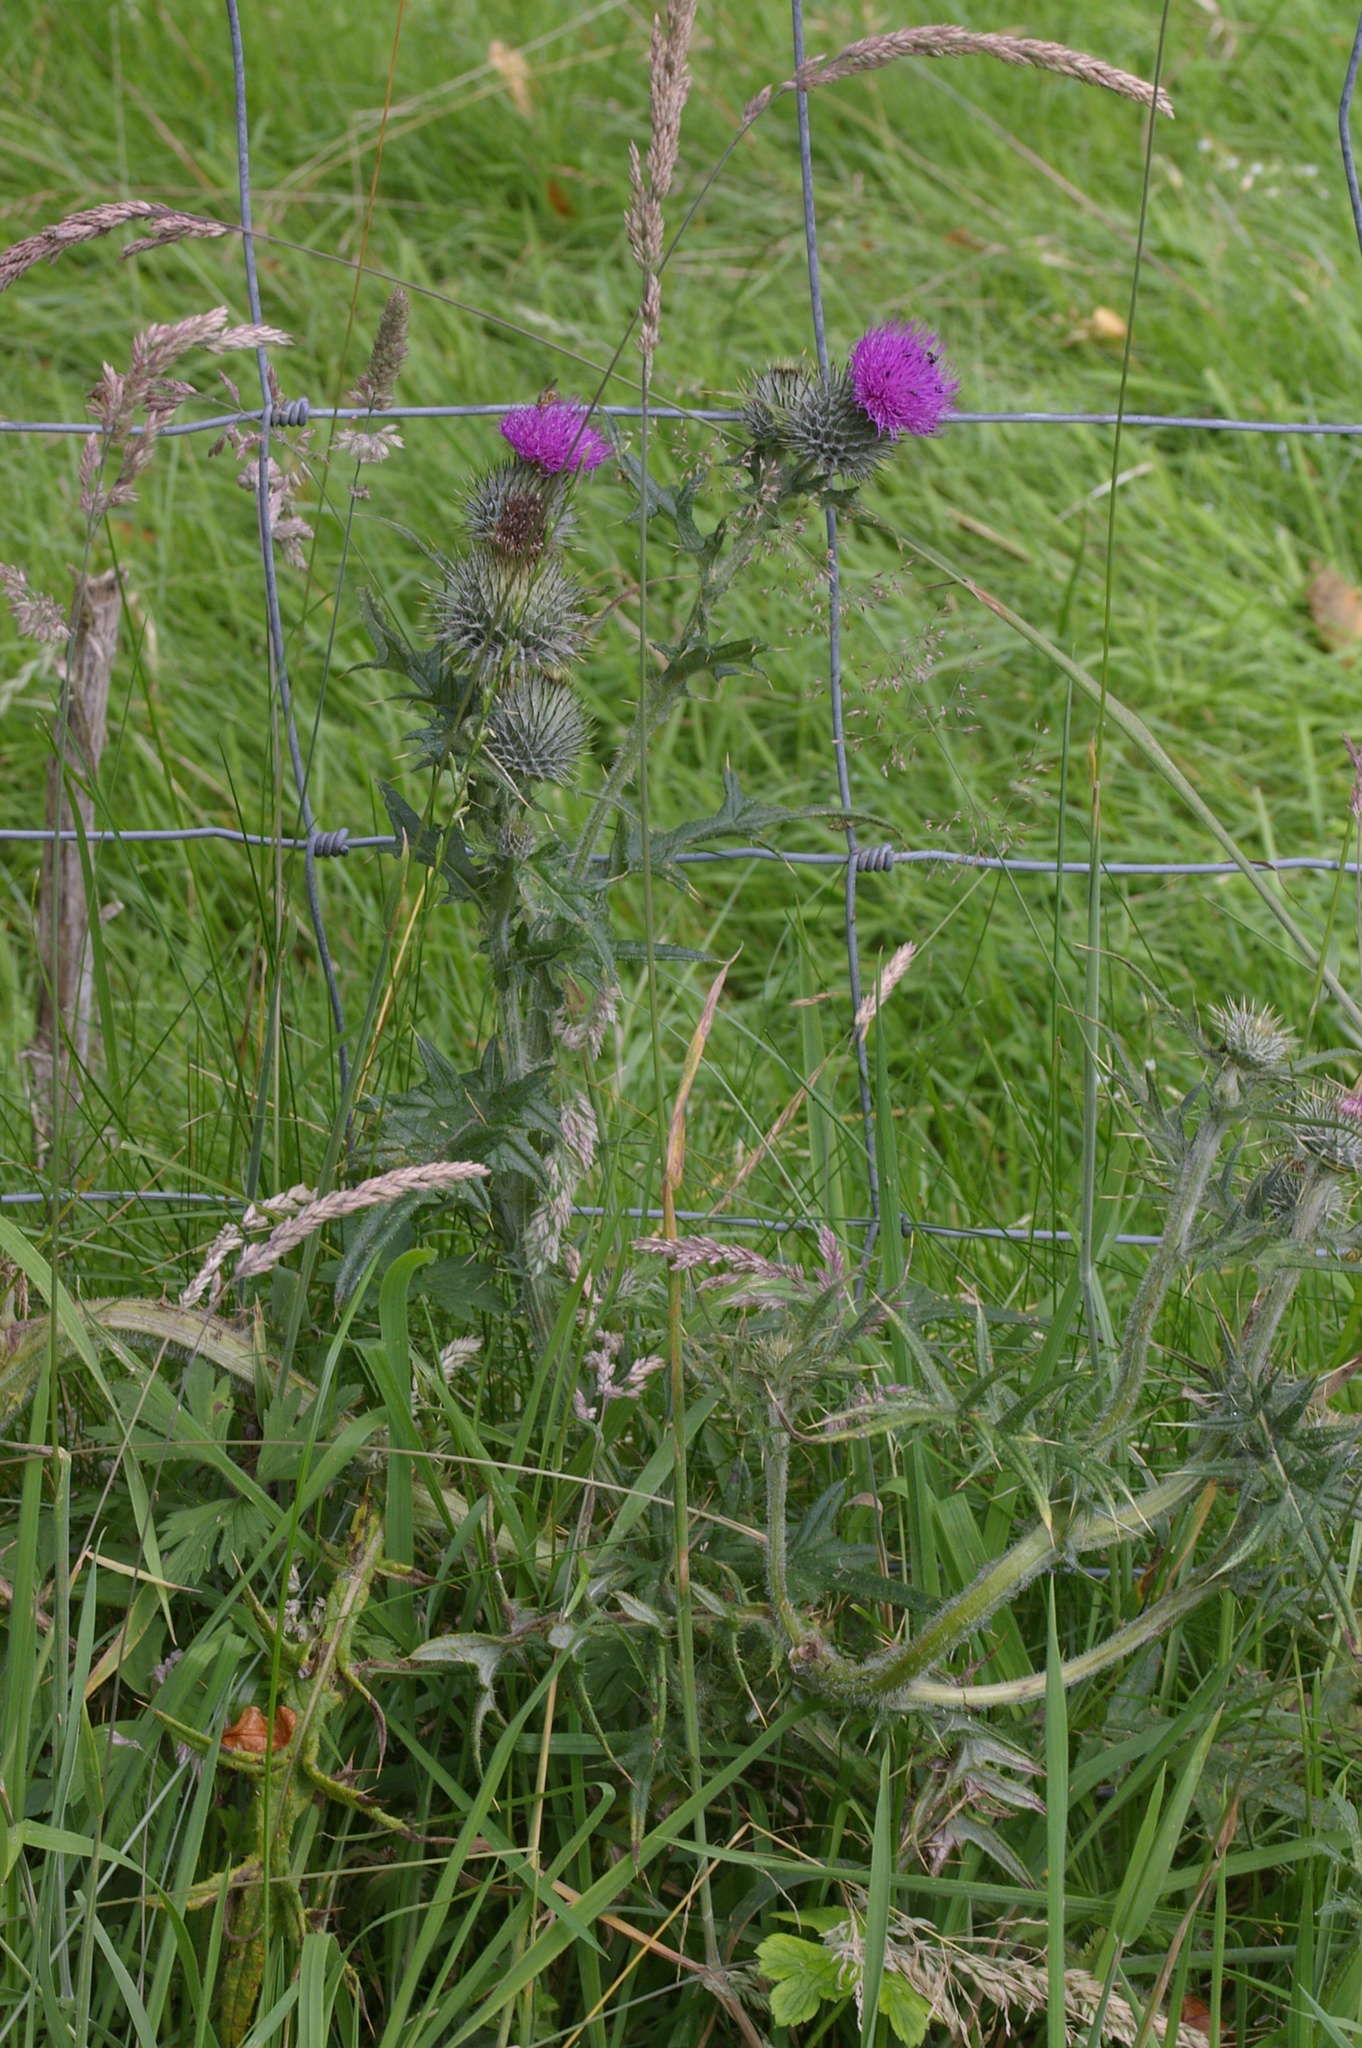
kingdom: Plantae
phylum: Tracheophyta
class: Magnoliopsida
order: Asterales
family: Asteraceae
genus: Cirsium
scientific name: Cirsium vulgare
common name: Bull thistle
